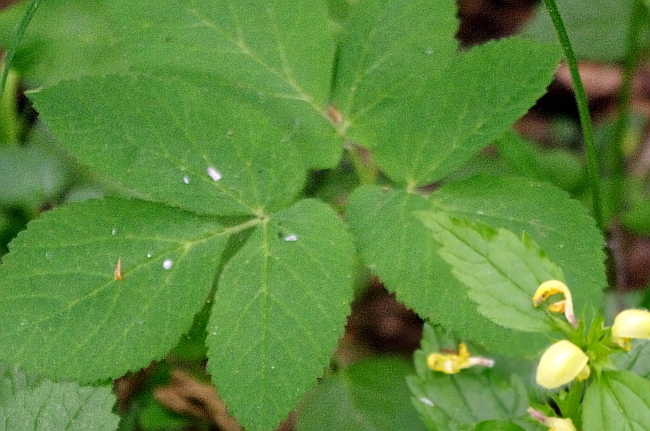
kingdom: Plantae
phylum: Tracheophyta
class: Magnoliopsida
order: Apiales
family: Apiaceae
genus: Aegopodium
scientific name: Aegopodium podagraria
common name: Ground-elder
